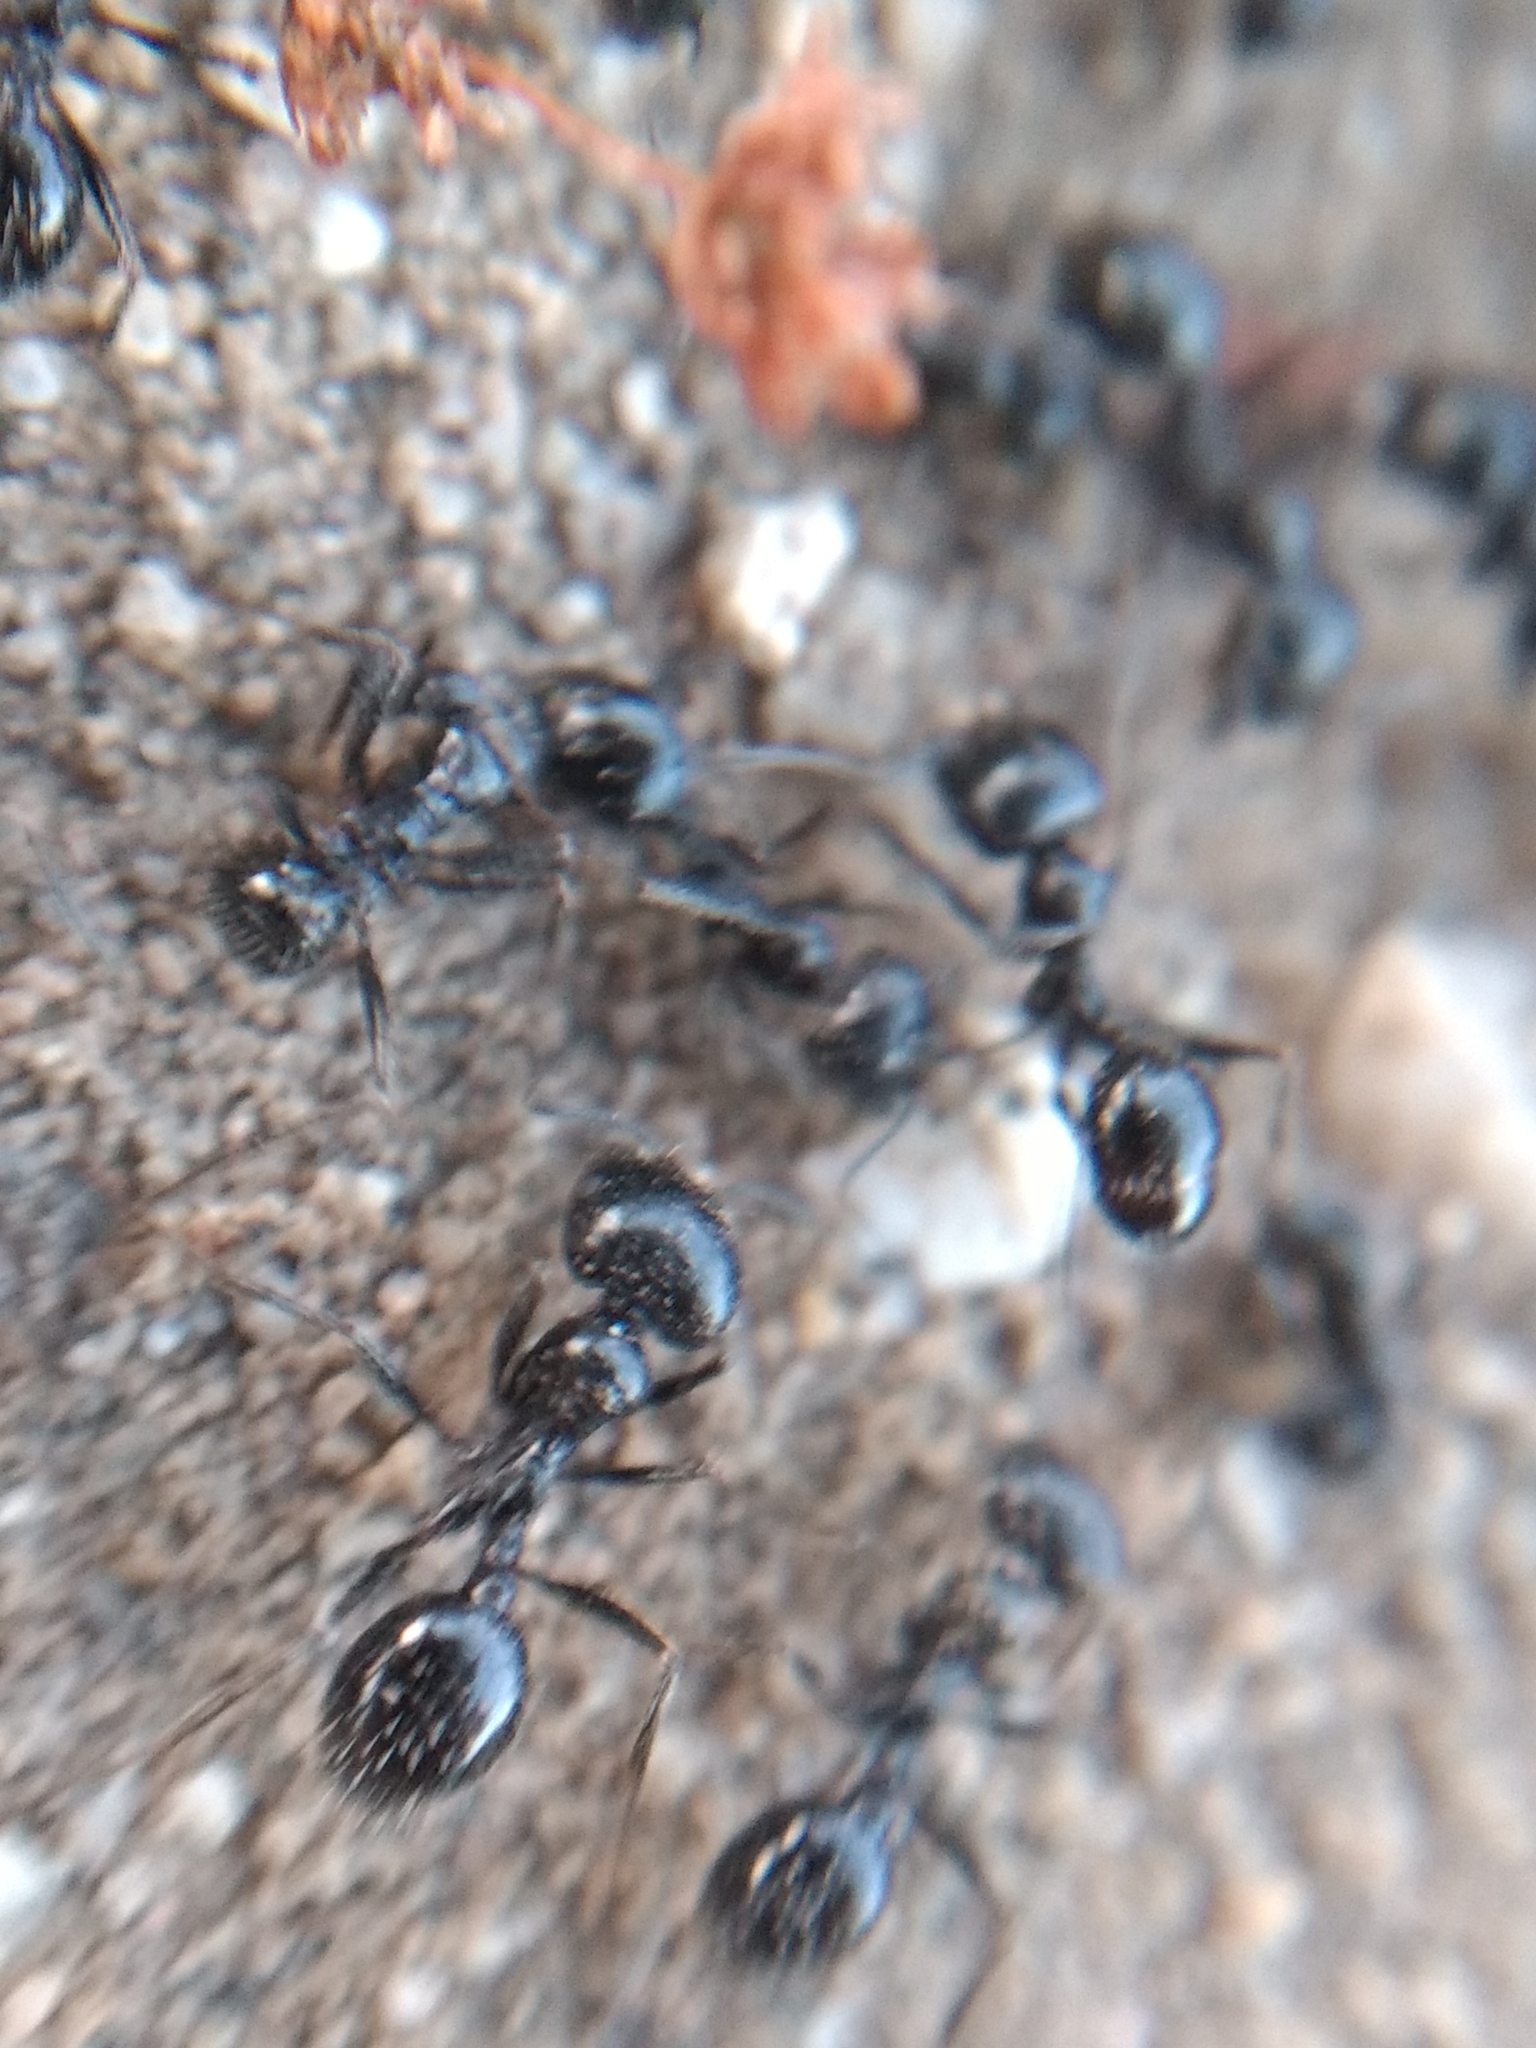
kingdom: Animalia
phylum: Arthropoda
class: Insecta
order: Hymenoptera
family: Formicidae
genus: Messor
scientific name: Messor pergandei
